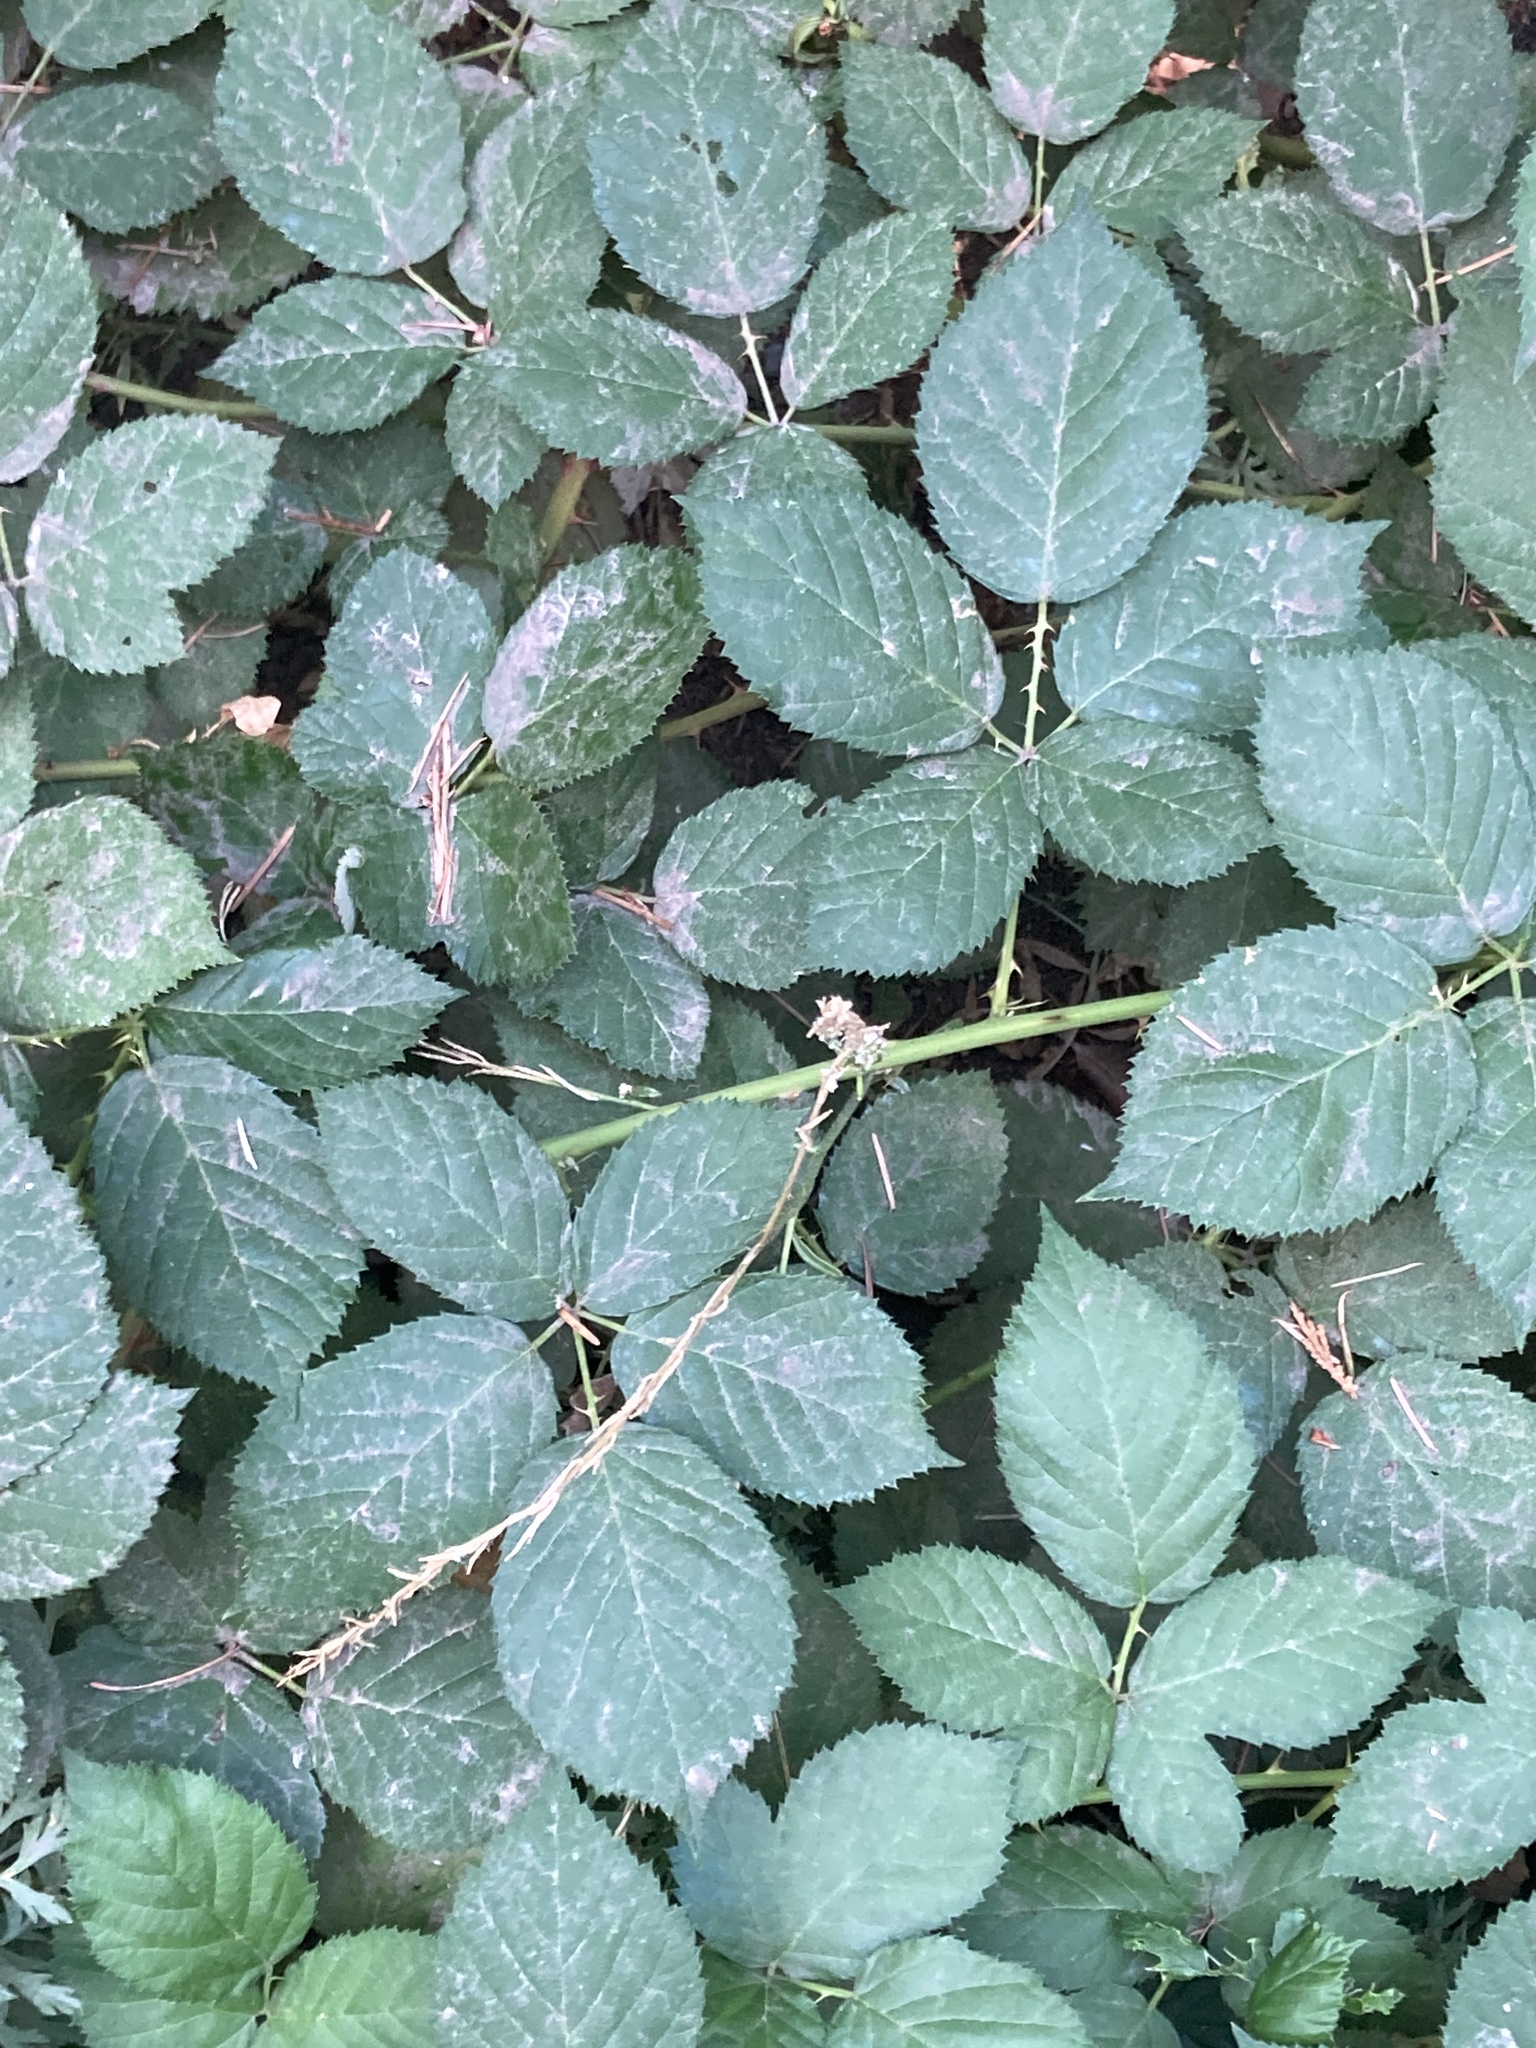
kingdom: Plantae
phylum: Tracheophyta
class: Magnoliopsida
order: Rosales
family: Rosaceae
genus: Rubus
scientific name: Rubus armeniacus
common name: Himalayan blackberry
